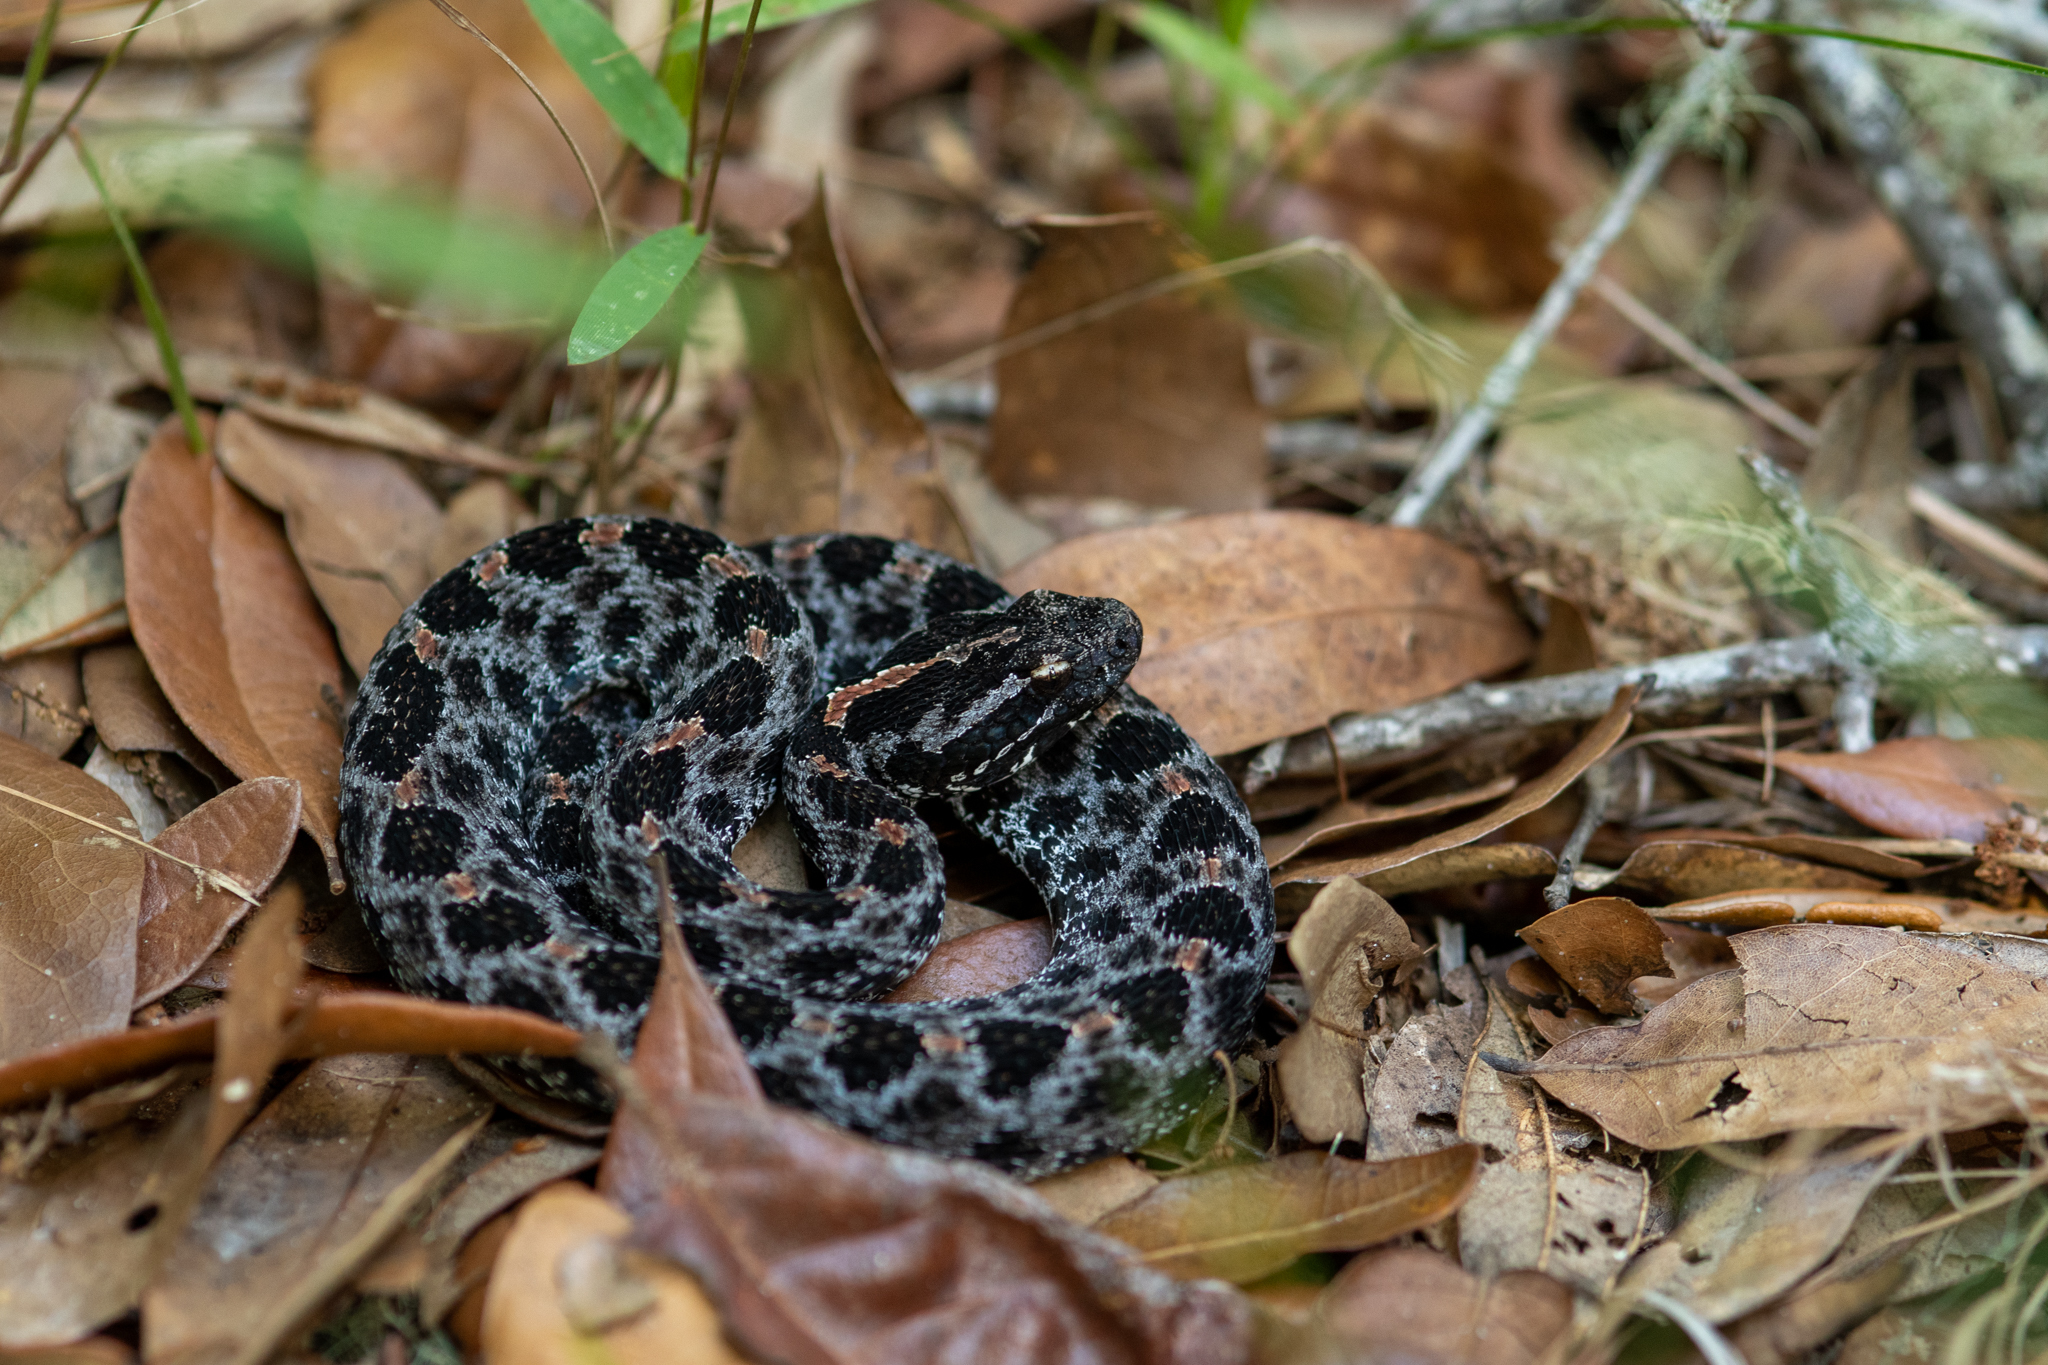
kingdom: Animalia
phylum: Chordata
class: Squamata
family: Viperidae
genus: Sistrurus
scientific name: Sistrurus miliarius
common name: Pygmy rattlesnake
